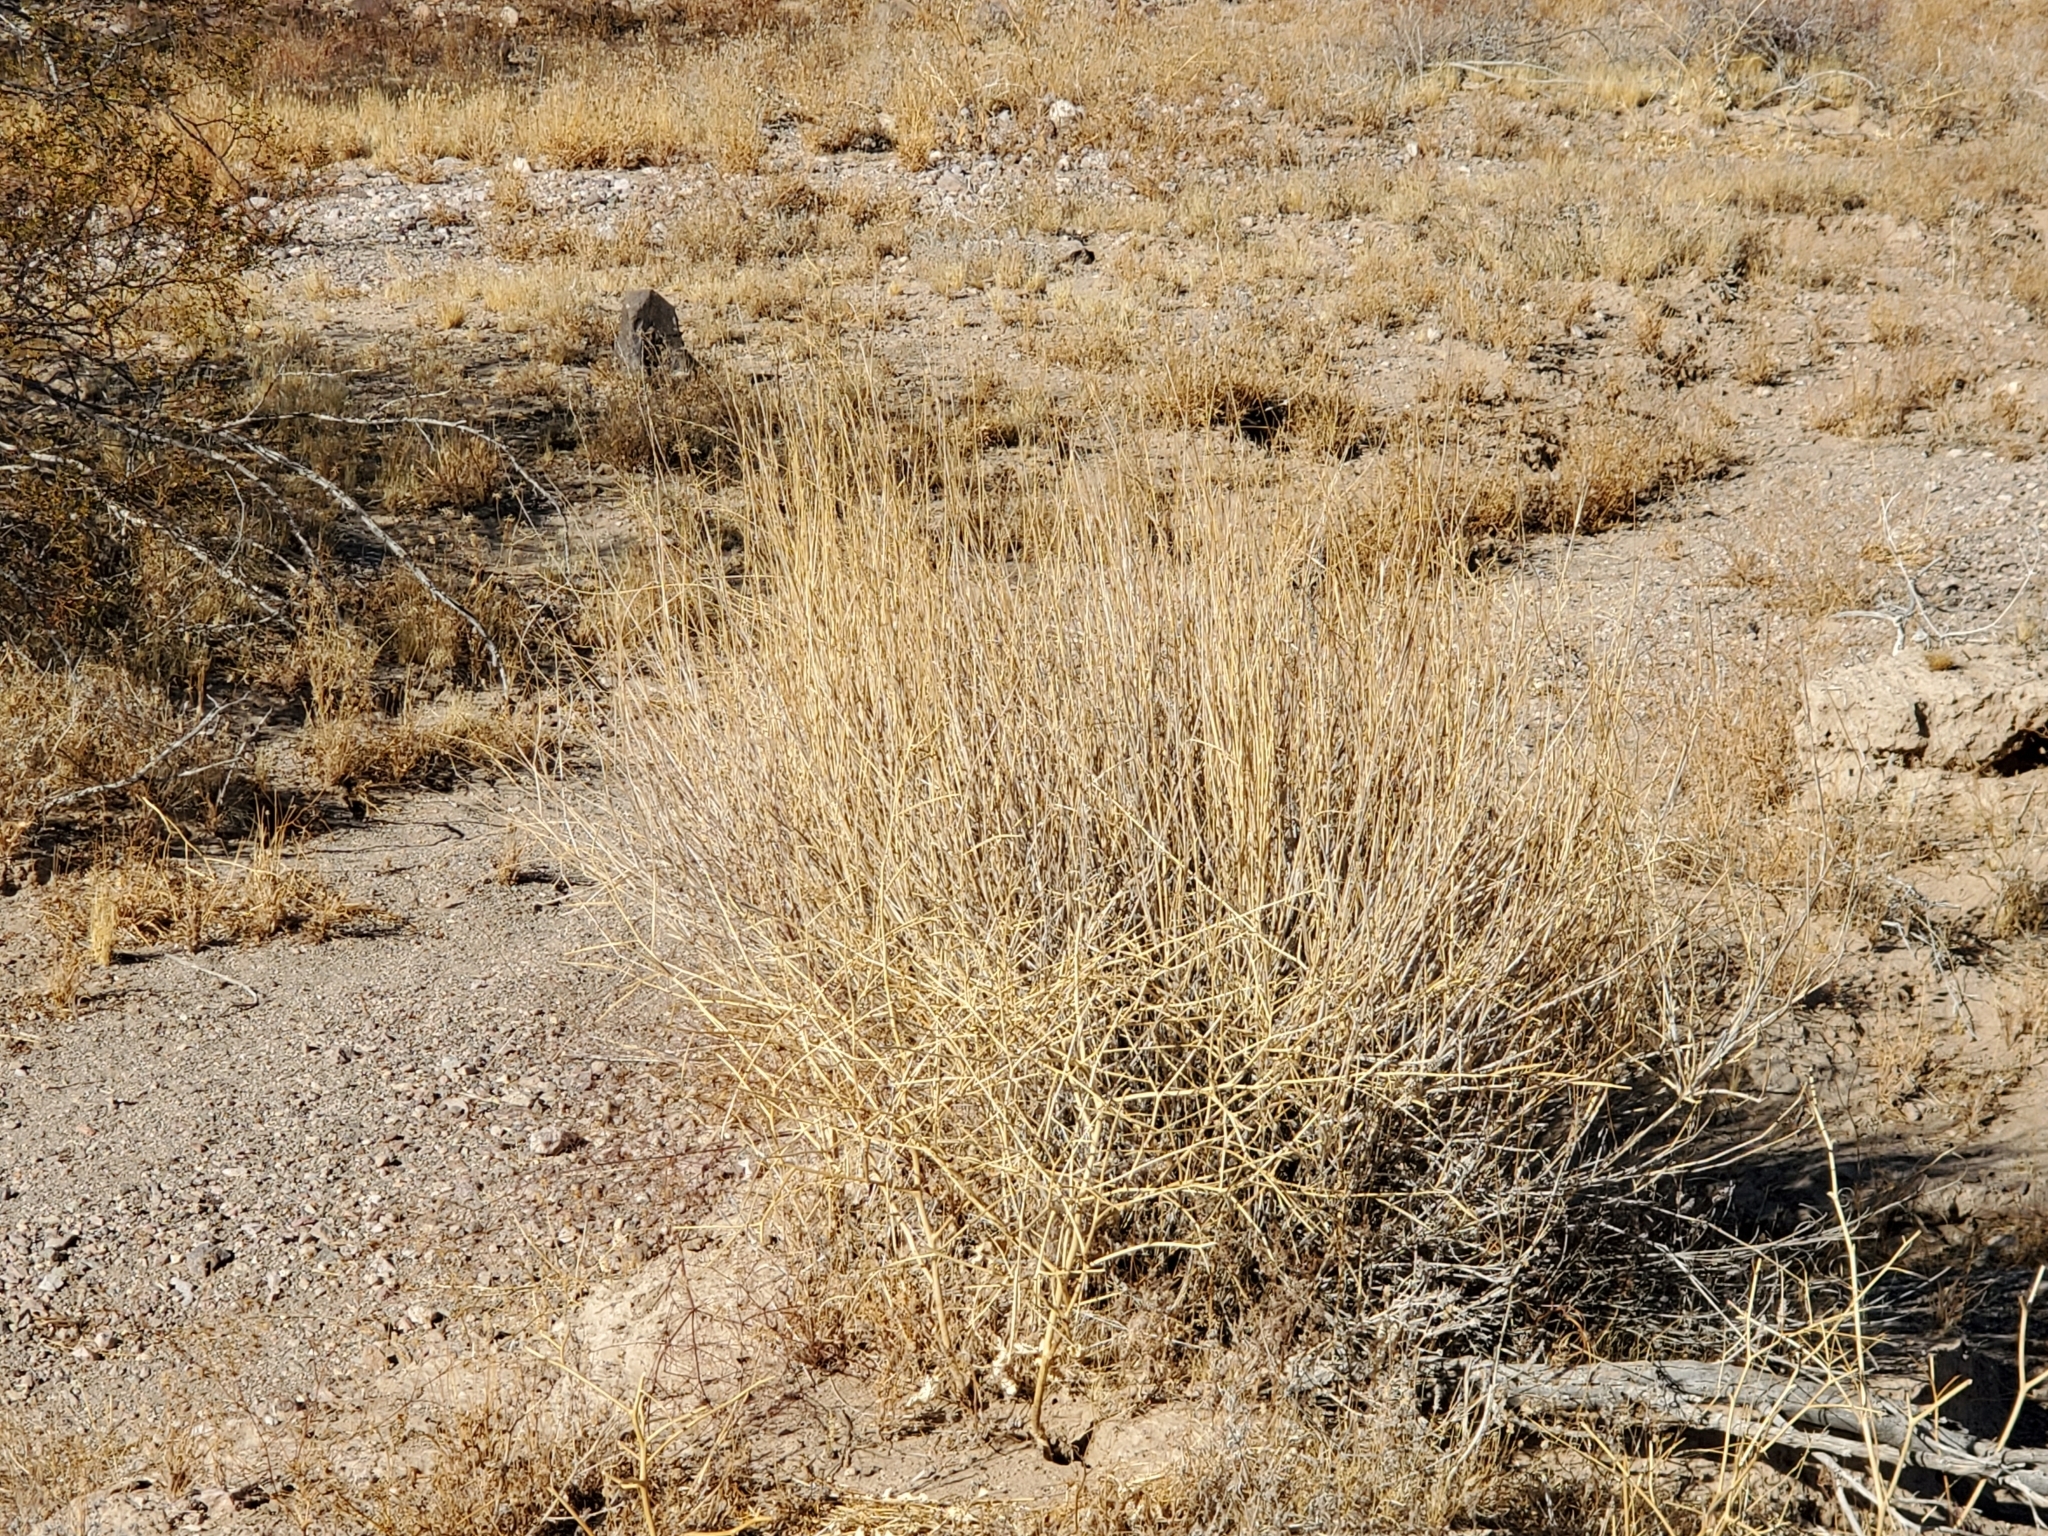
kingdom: Plantae
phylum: Tracheophyta
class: Liliopsida
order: Poales
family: Poaceae
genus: Hilaria
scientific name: Hilaria rigida
